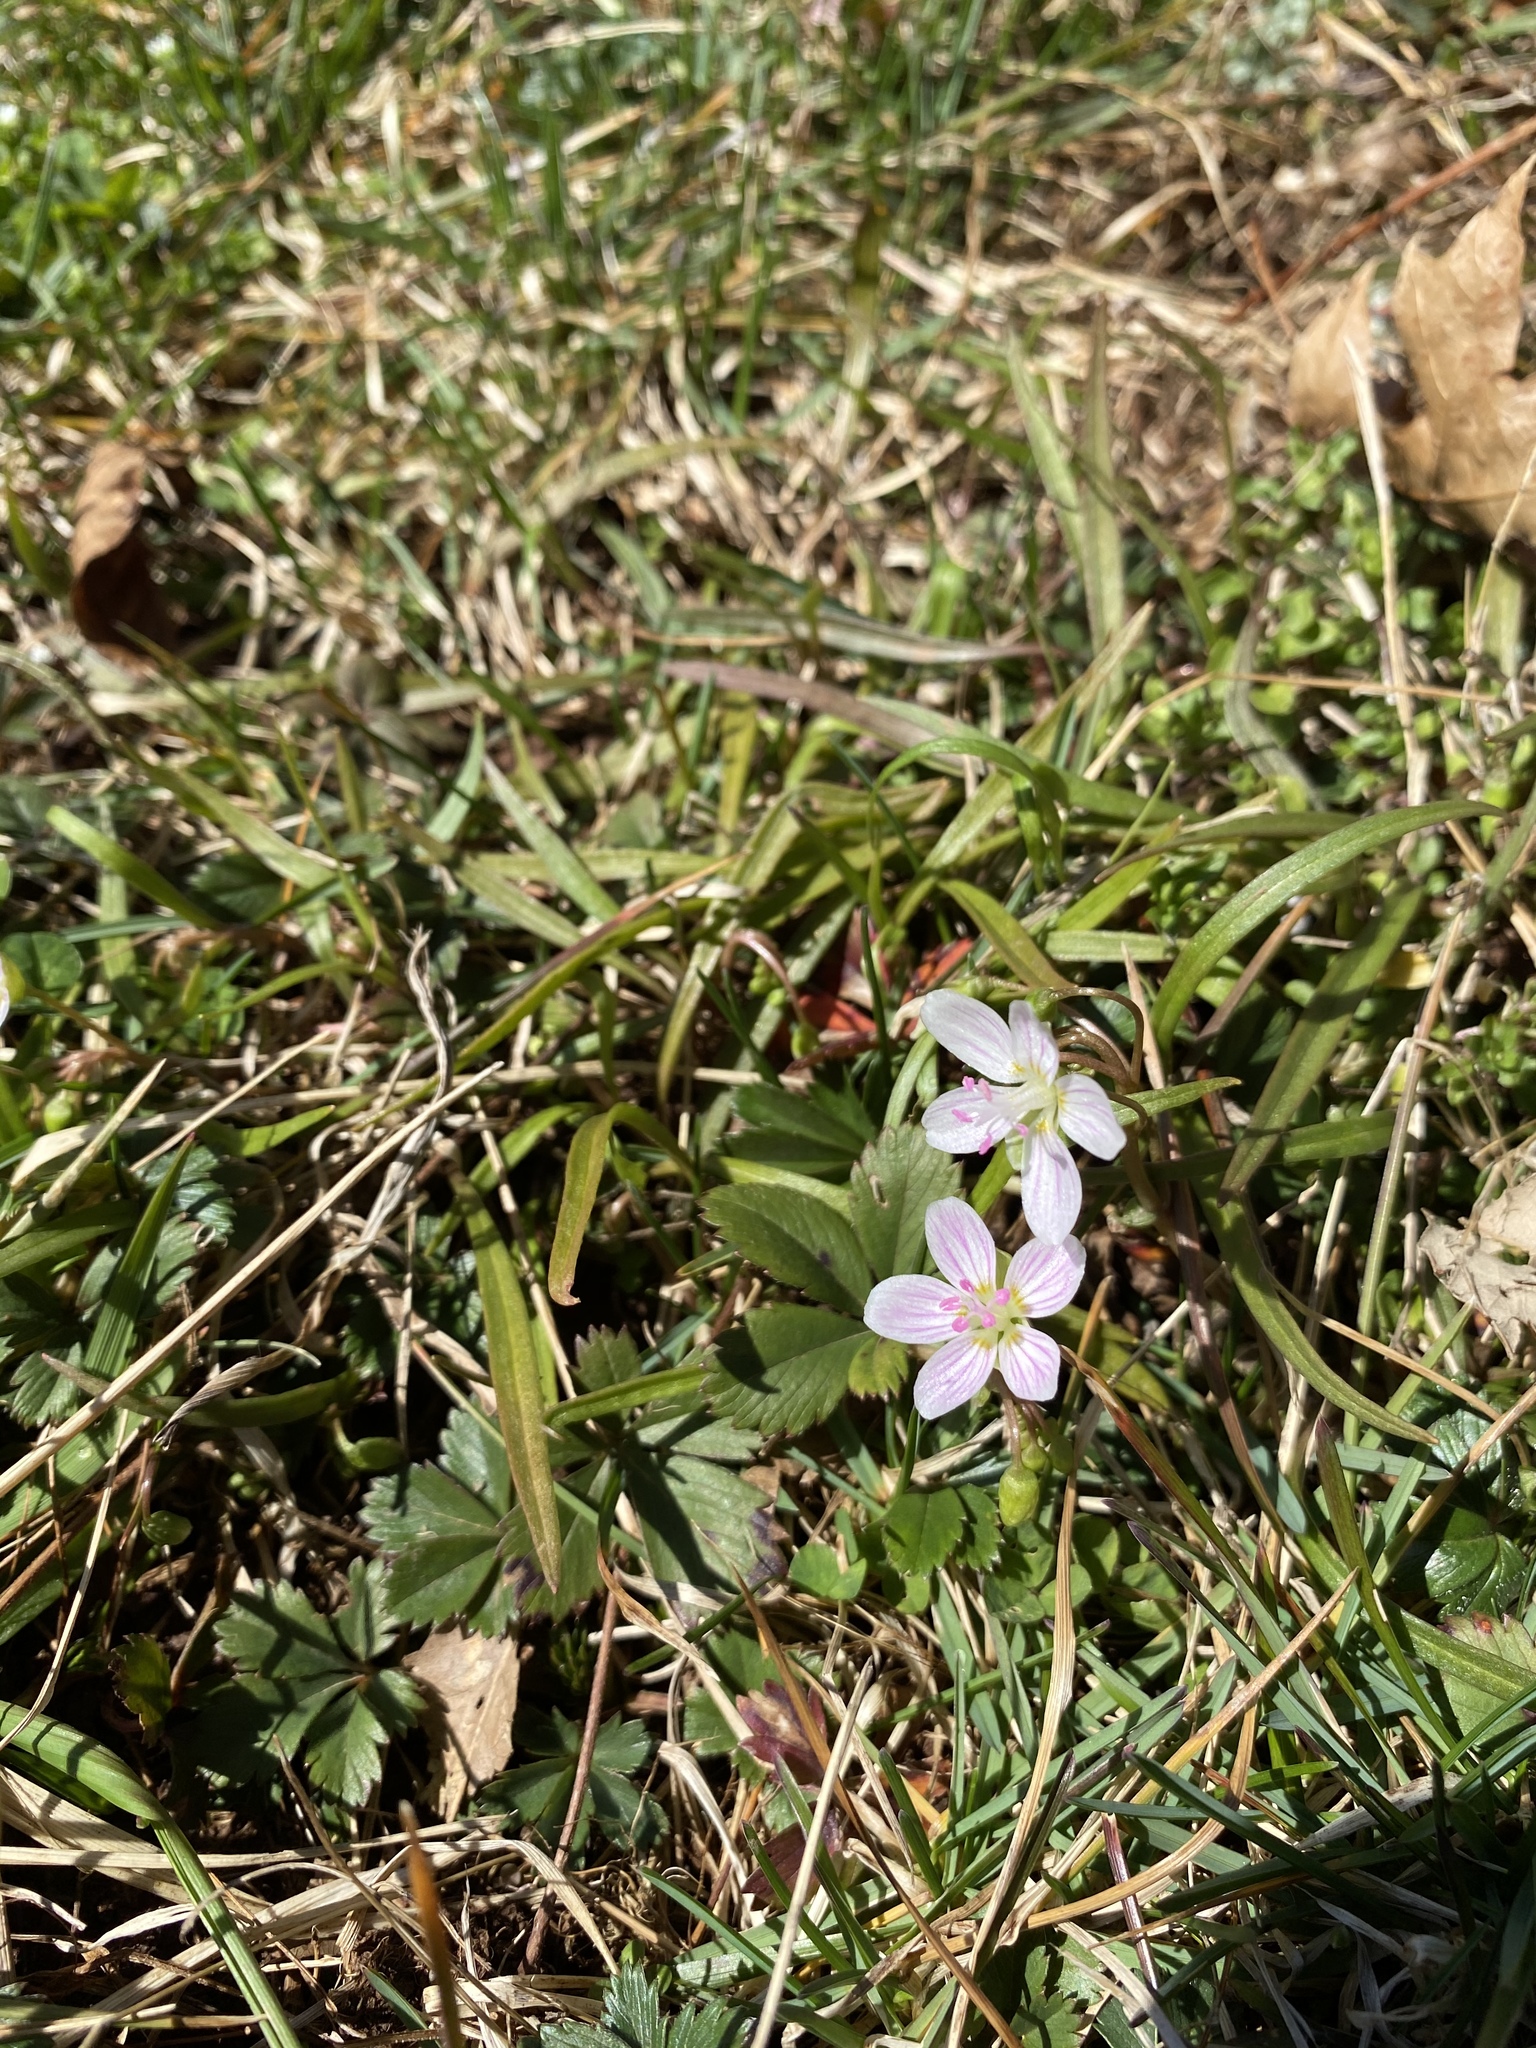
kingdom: Plantae
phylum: Tracheophyta
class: Magnoliopsida
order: Caryophyllales
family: Montiaceae
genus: Claytonia
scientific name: Claytonia virginica
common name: Virginia springbeauty
